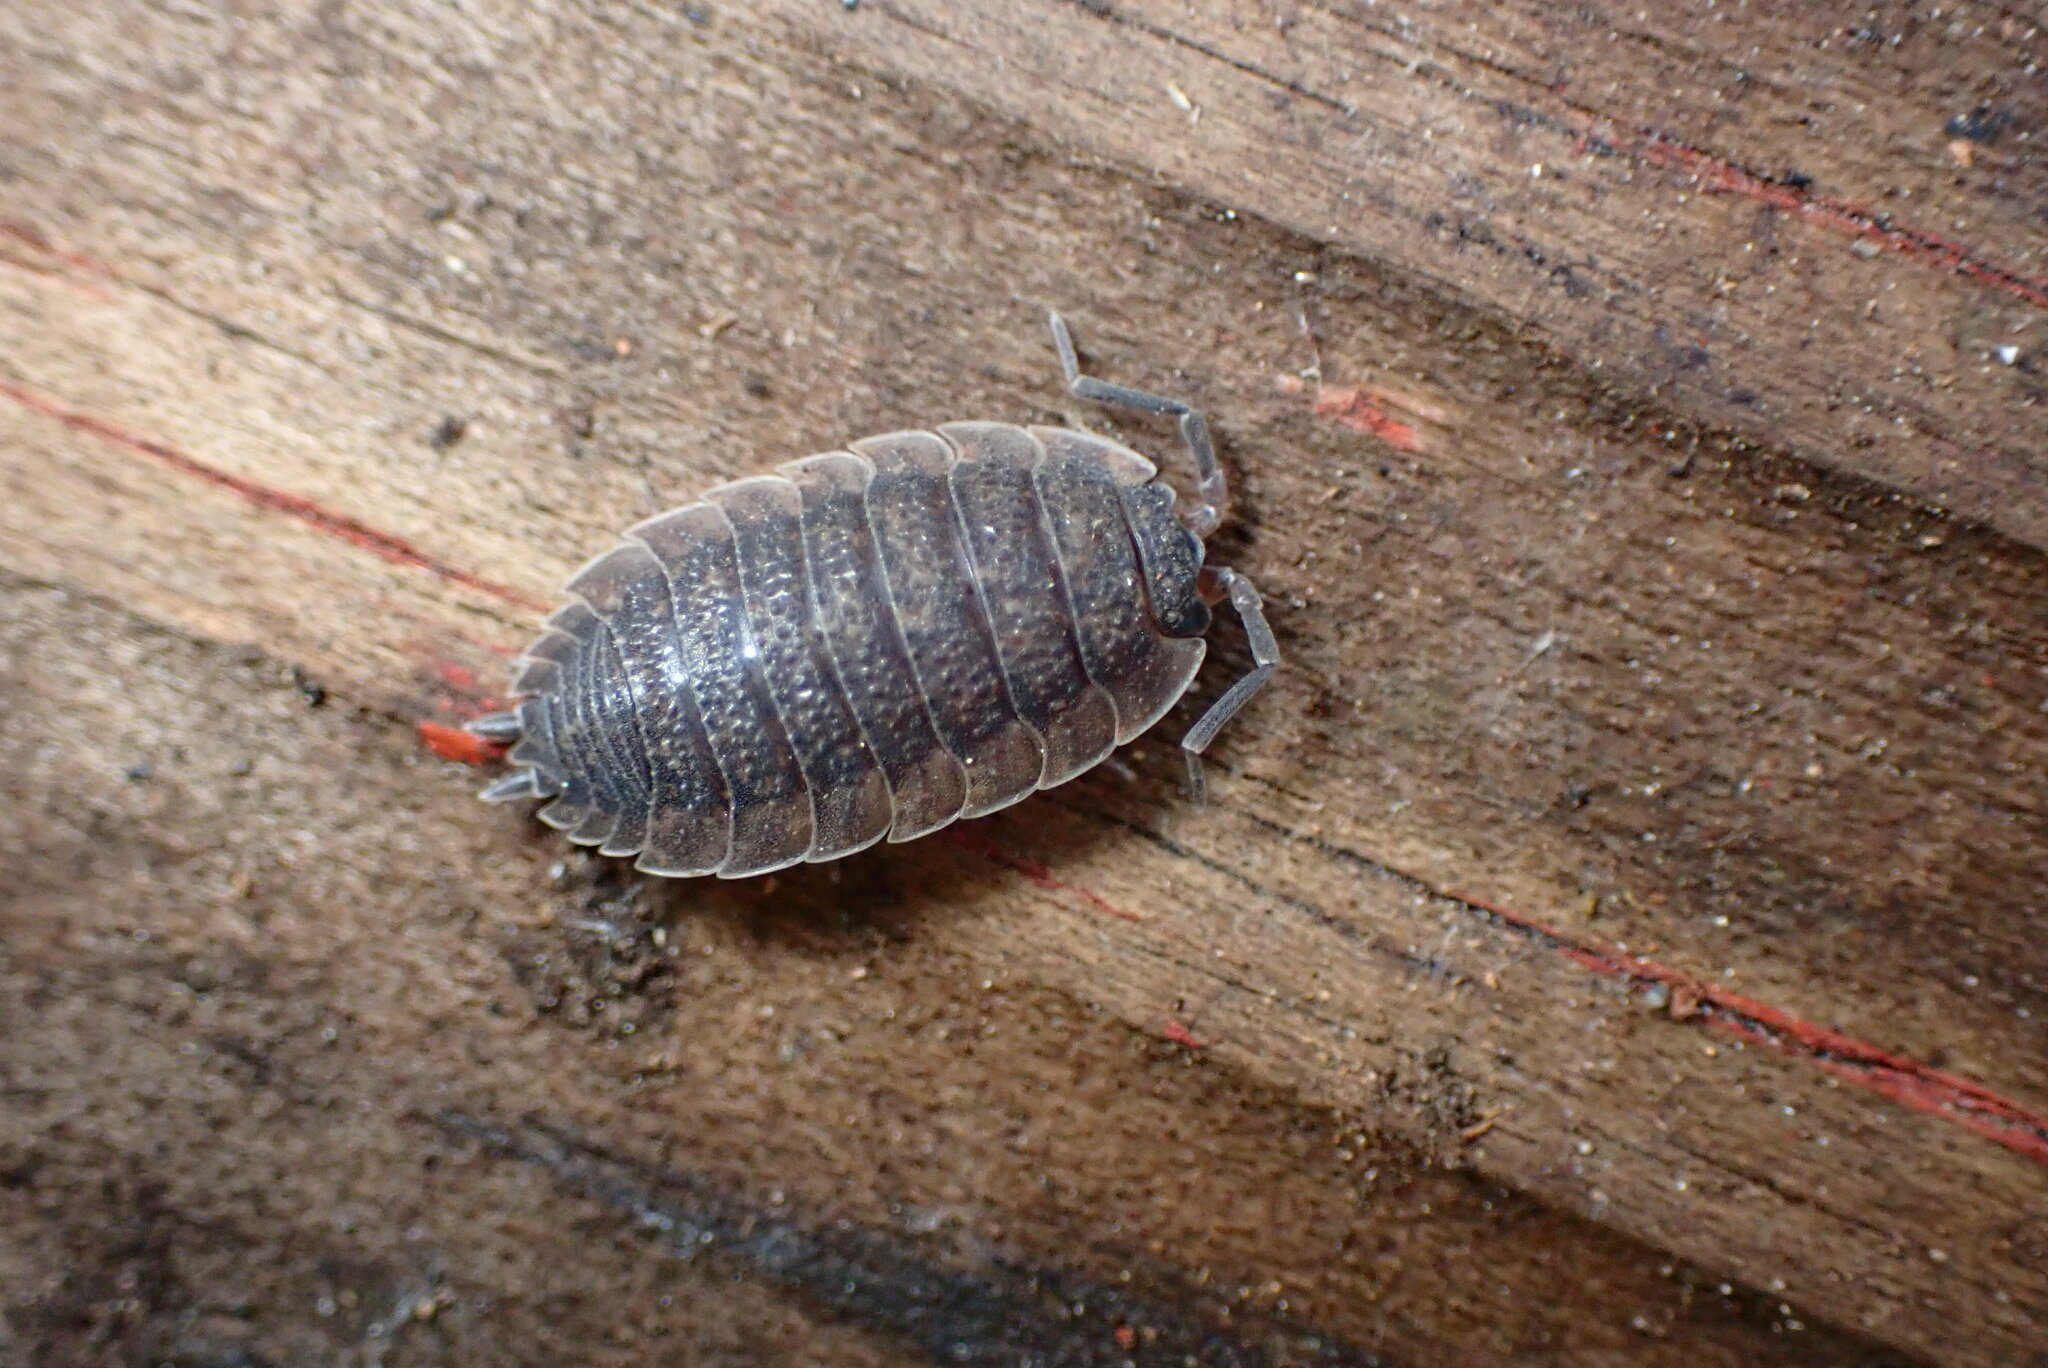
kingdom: Animalia
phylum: Arthropoda
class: Malacostraca
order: Isopoda
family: Porcellionidae
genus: Porcellio
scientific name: Porcellio scaber
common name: Common rough woodlouse
